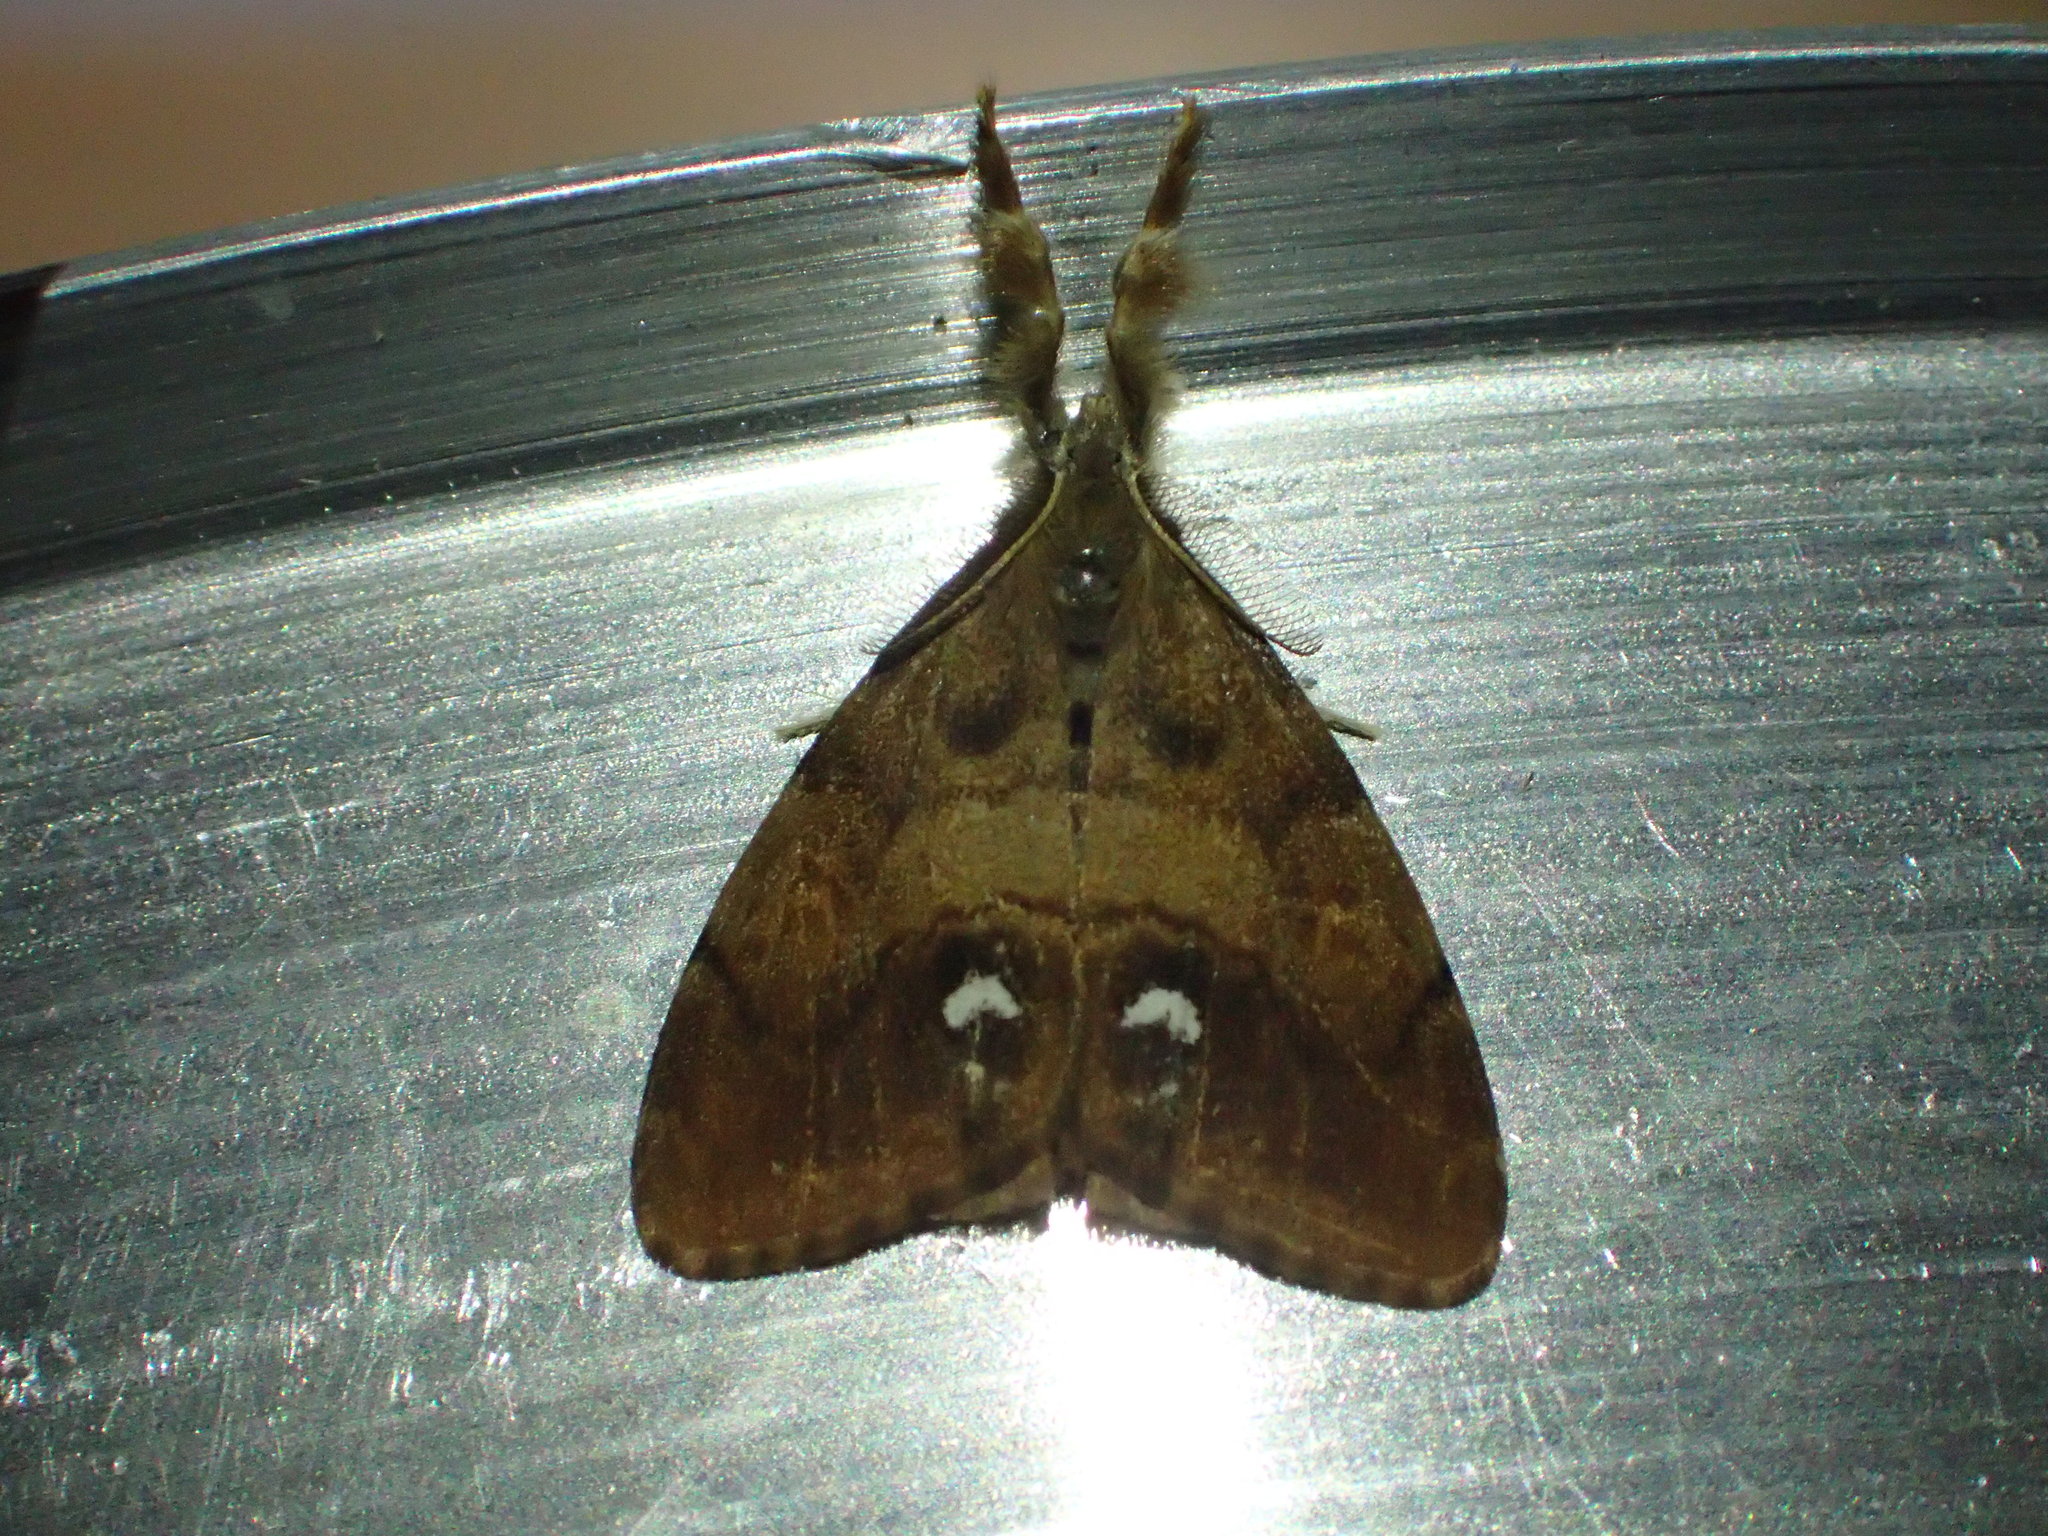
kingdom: Animalia
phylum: Arthropoda
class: Insecta
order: Lepidoptera
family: Erebidae
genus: Orgyia
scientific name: Orgyia antiqua
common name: Vapourer
